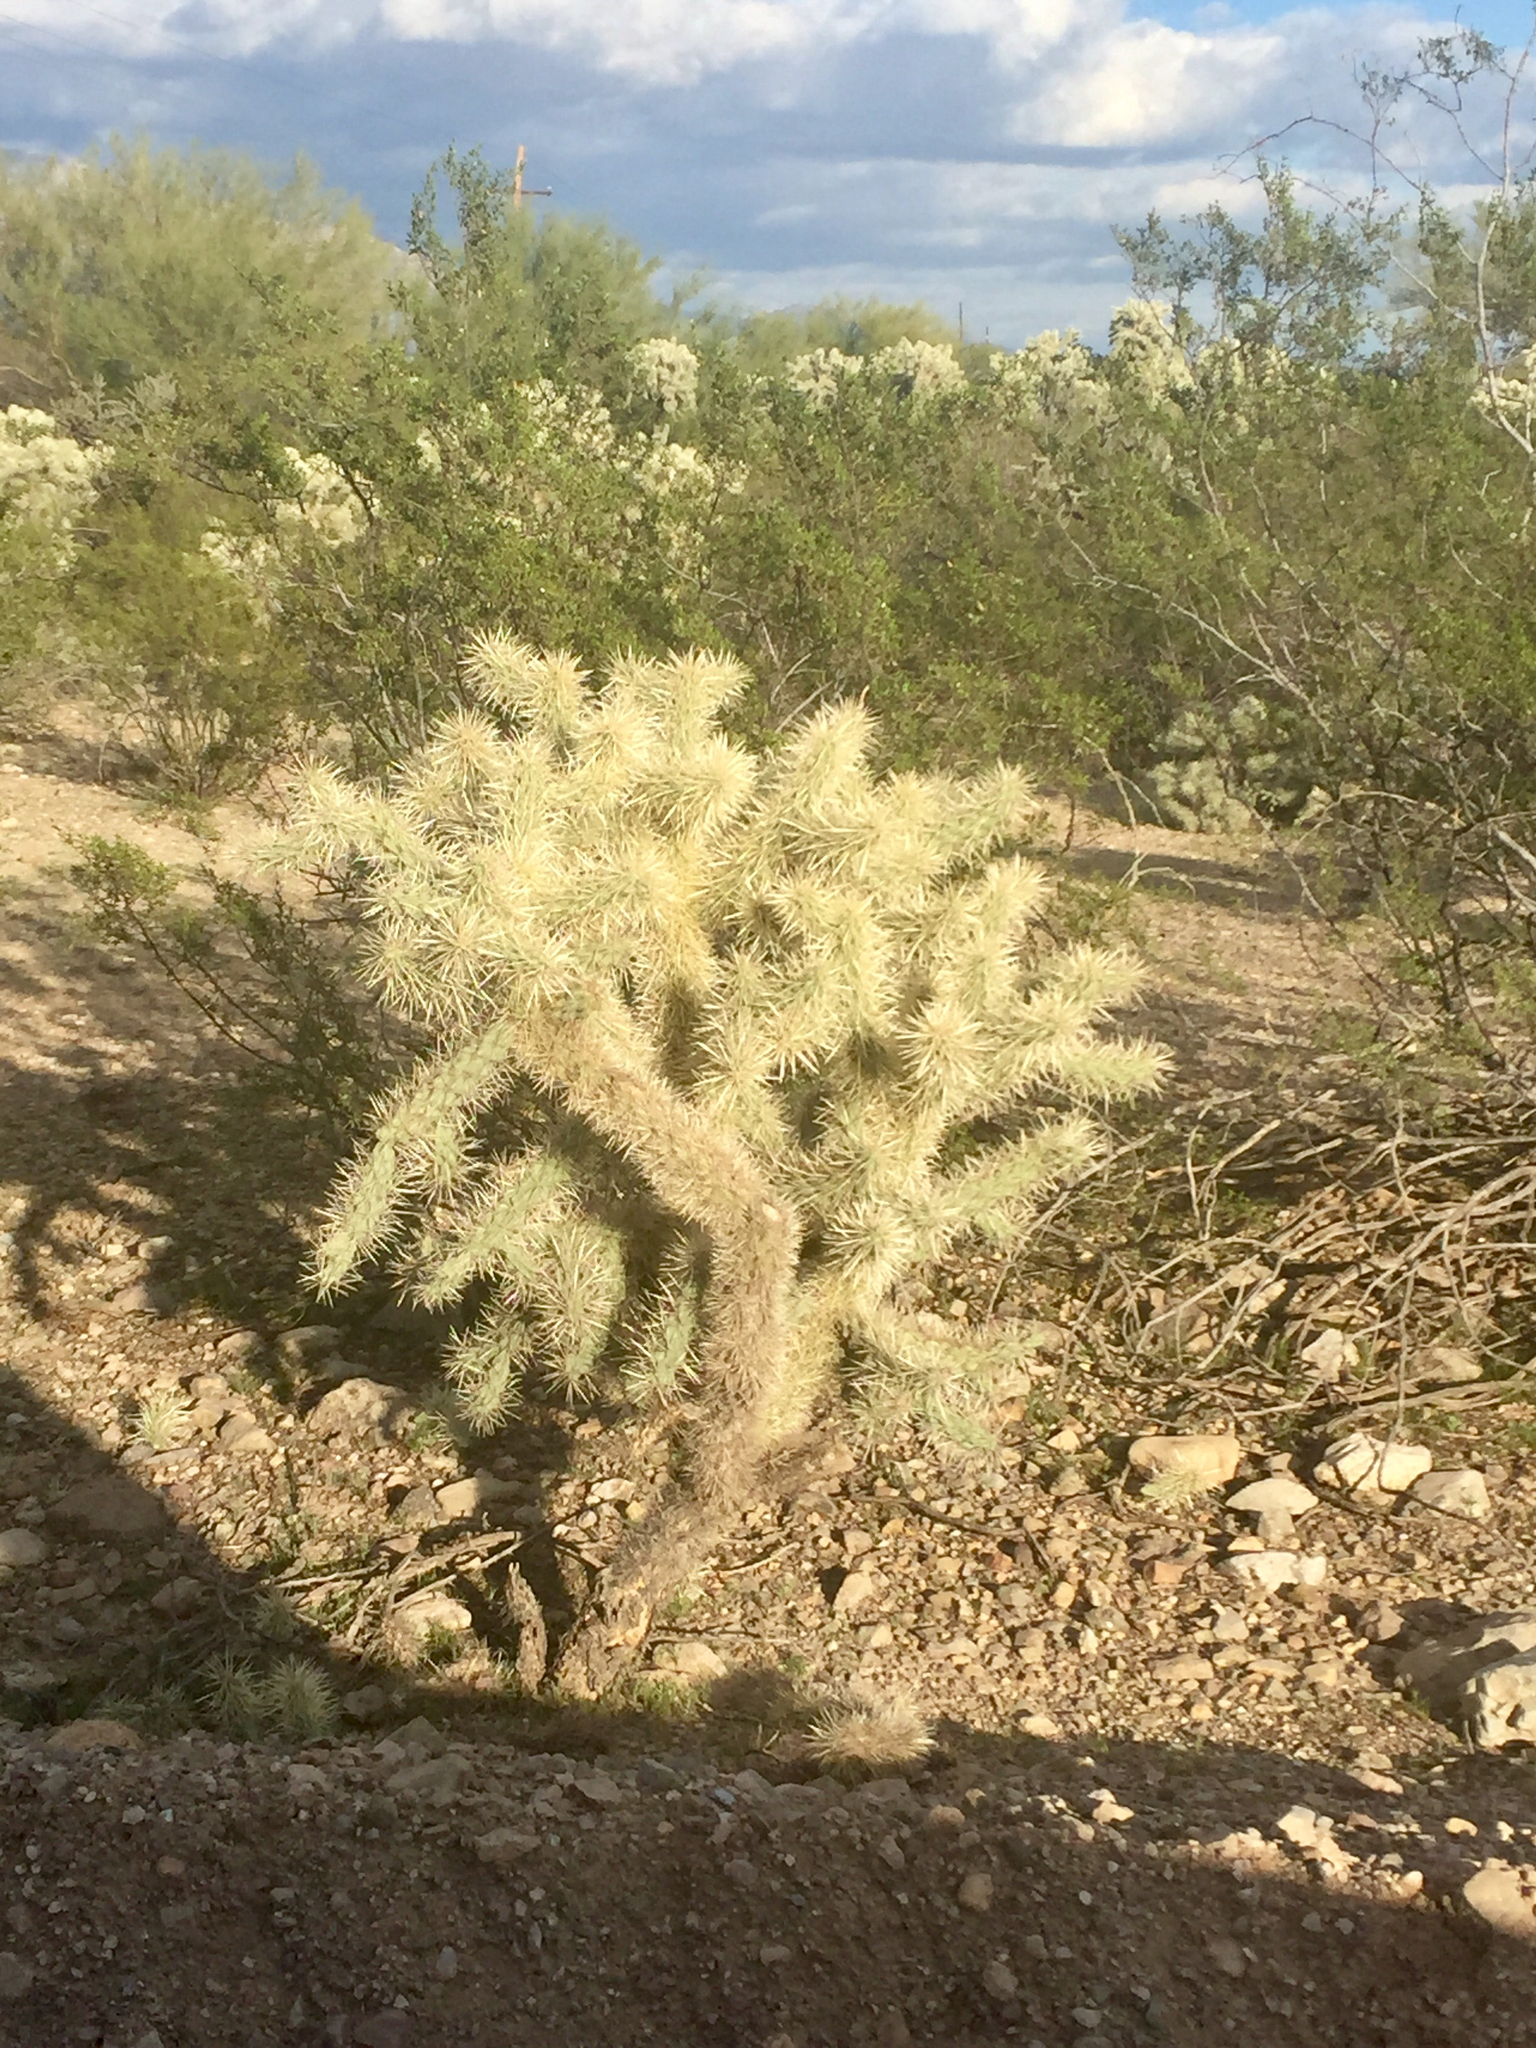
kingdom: Plantae
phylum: Tracheophyta
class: Magnoliopsida
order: Caryophyllales
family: Cactaceae
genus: Cylindropuntia
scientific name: Cylindropuntia fosbergii
